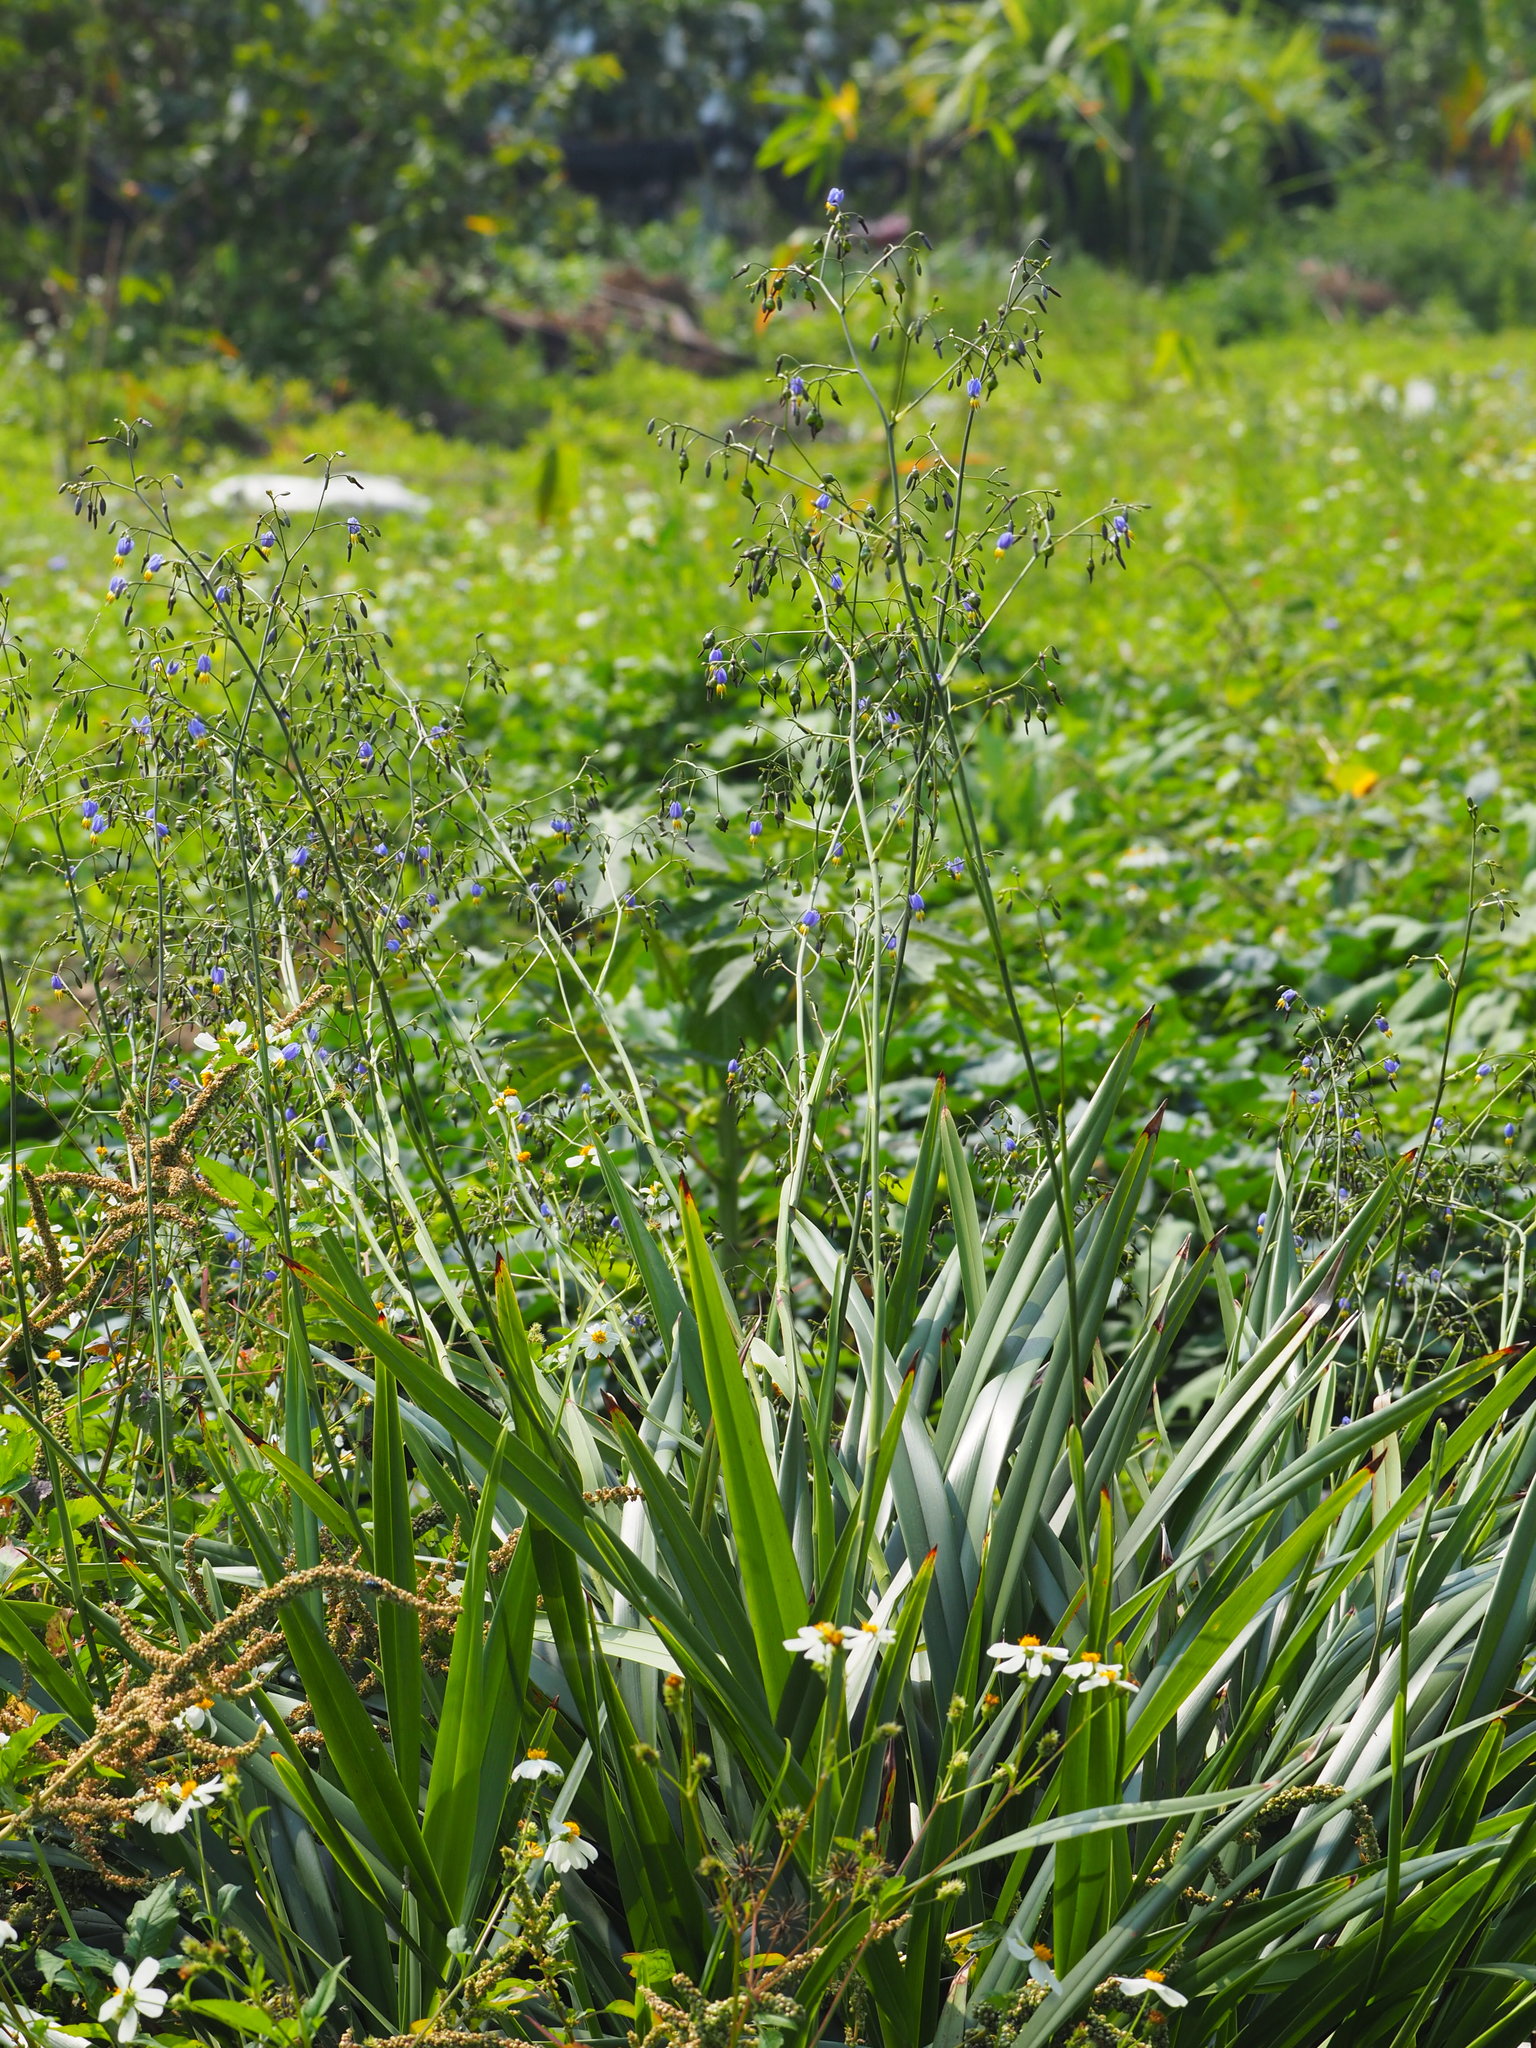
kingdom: Plantae
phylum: Tracheophyta
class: Liliopsida
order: Asparagales
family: Asphodelaceae
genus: Dianella
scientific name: Dianella ensifolia
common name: New zealand lilyplant
